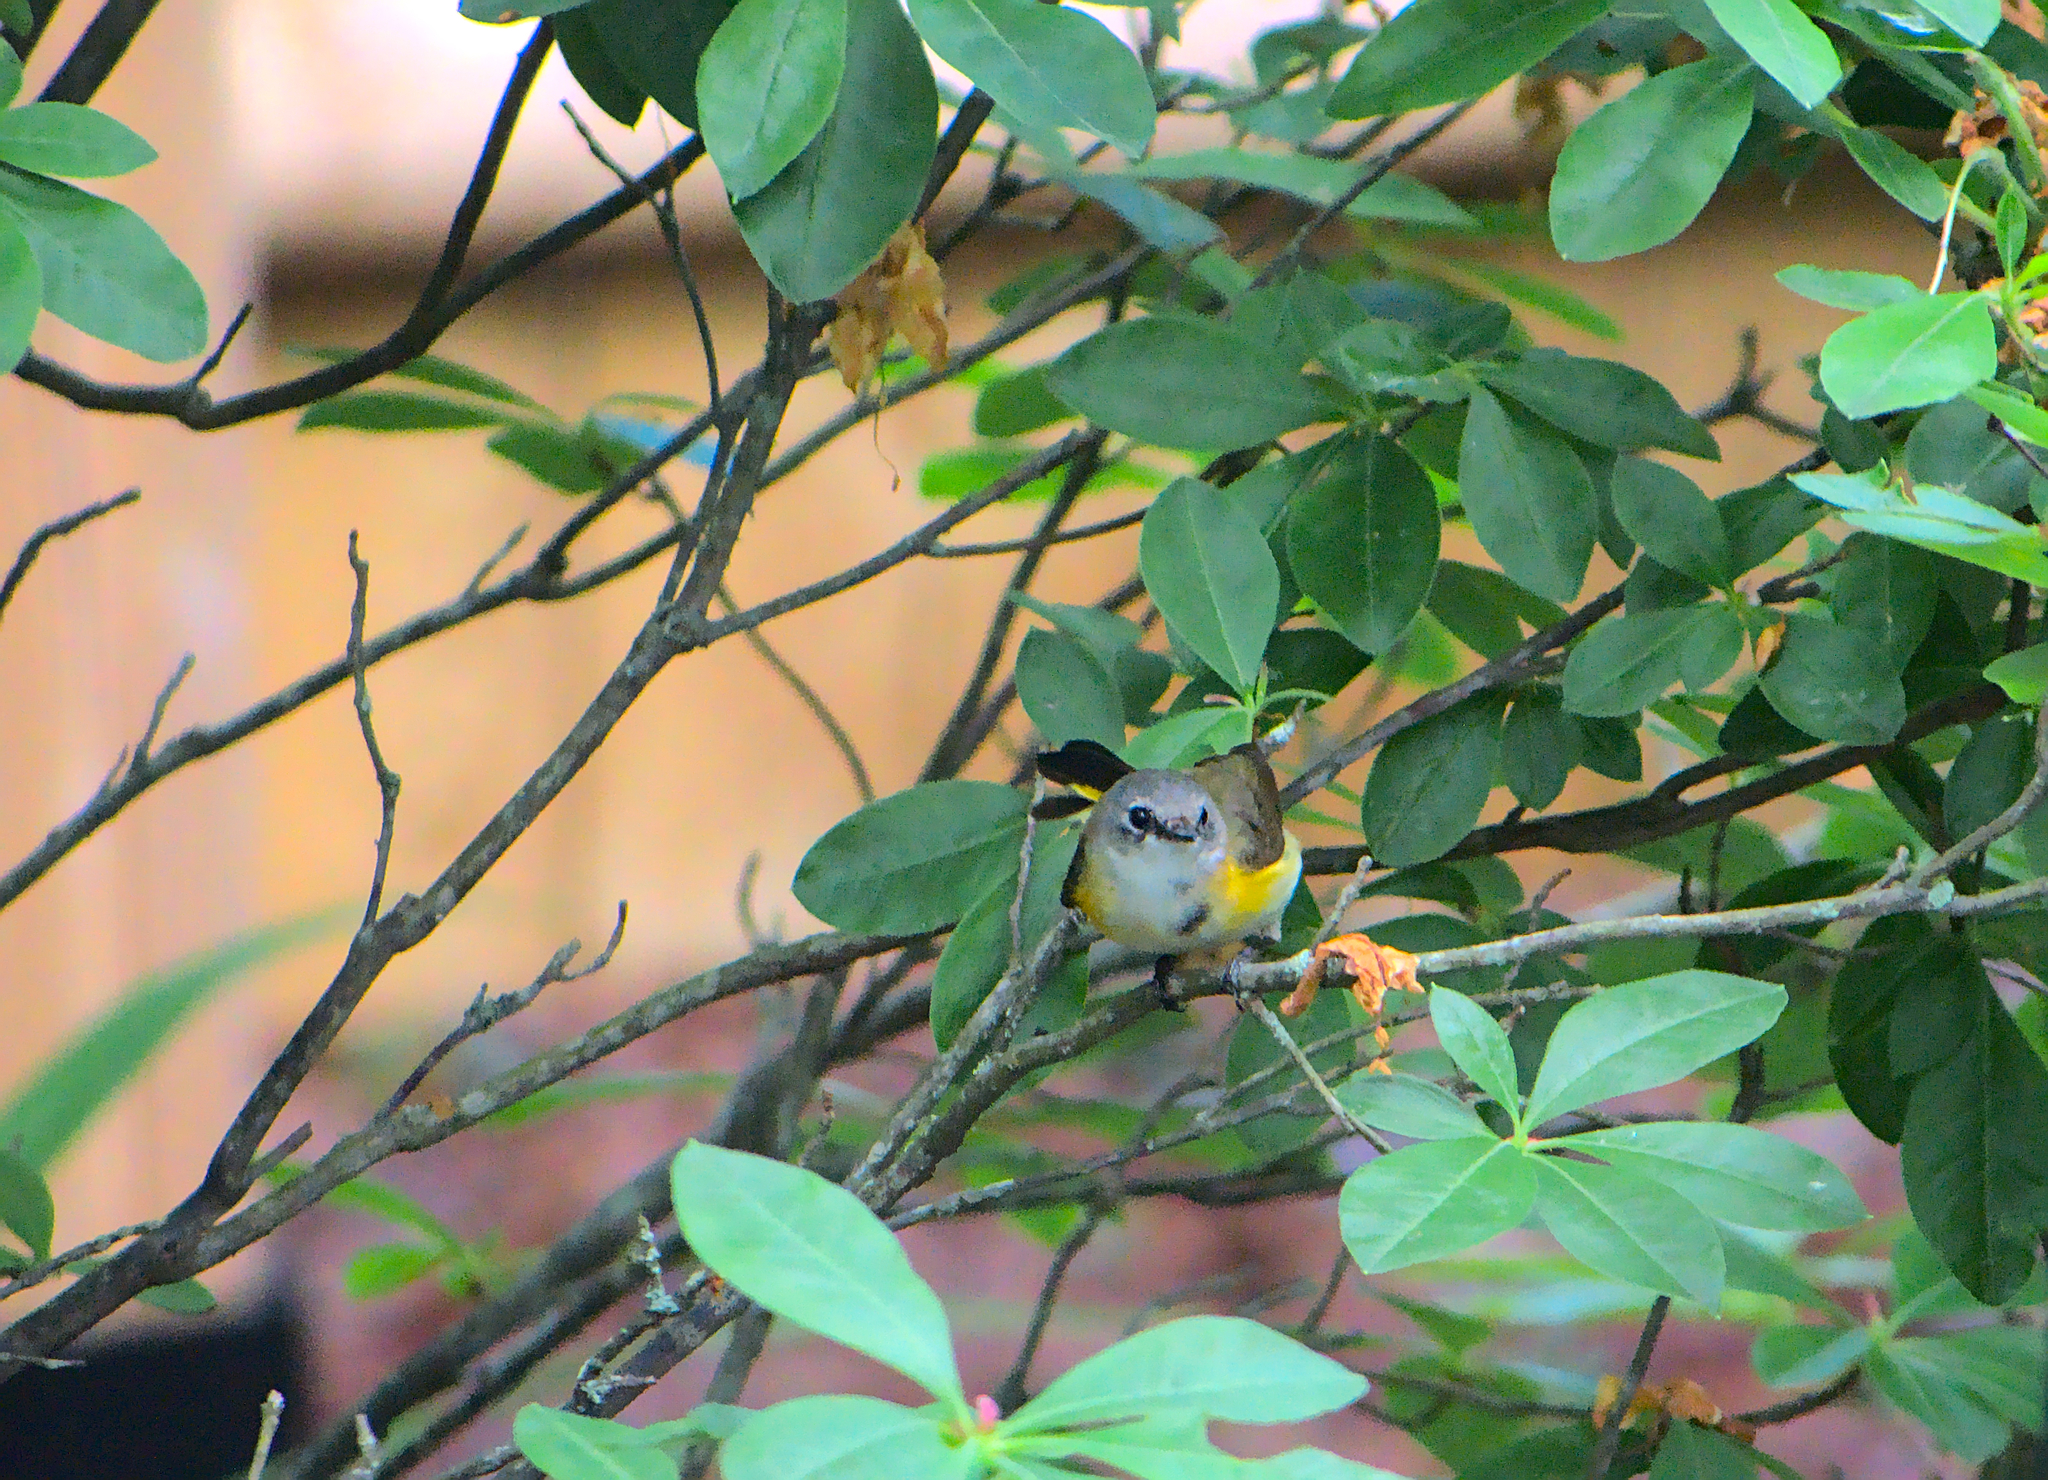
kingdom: Animalia
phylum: Chordata
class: Aves
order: Passeriformes
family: Parulidae
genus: Setophaga
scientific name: Setophaga ruticilla
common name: American redstart
